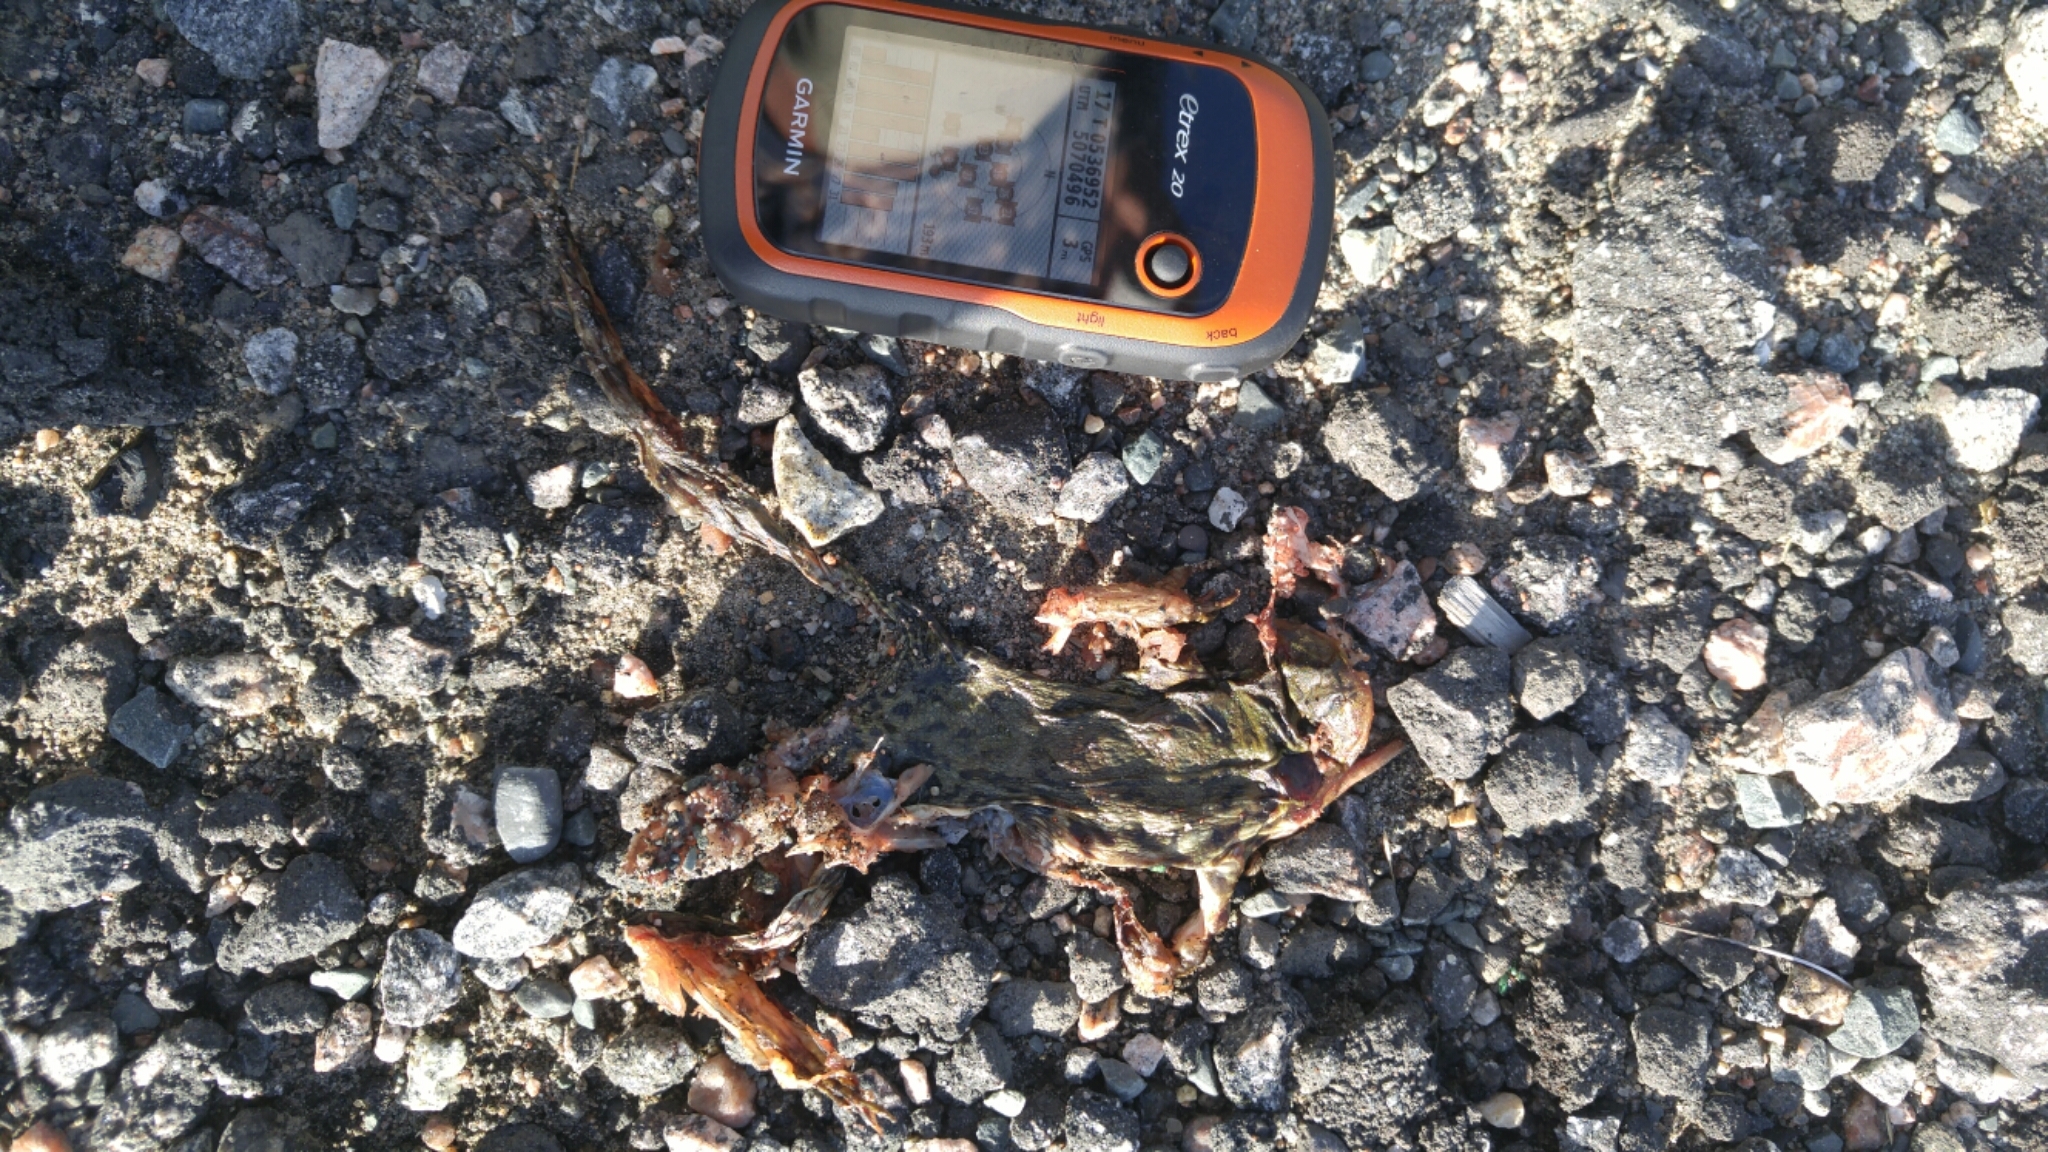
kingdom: Animalia
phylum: Chordata
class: Amphibia
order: Anura
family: Ranidae
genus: Lithobates
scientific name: Lithobates clamitans
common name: Green frog
